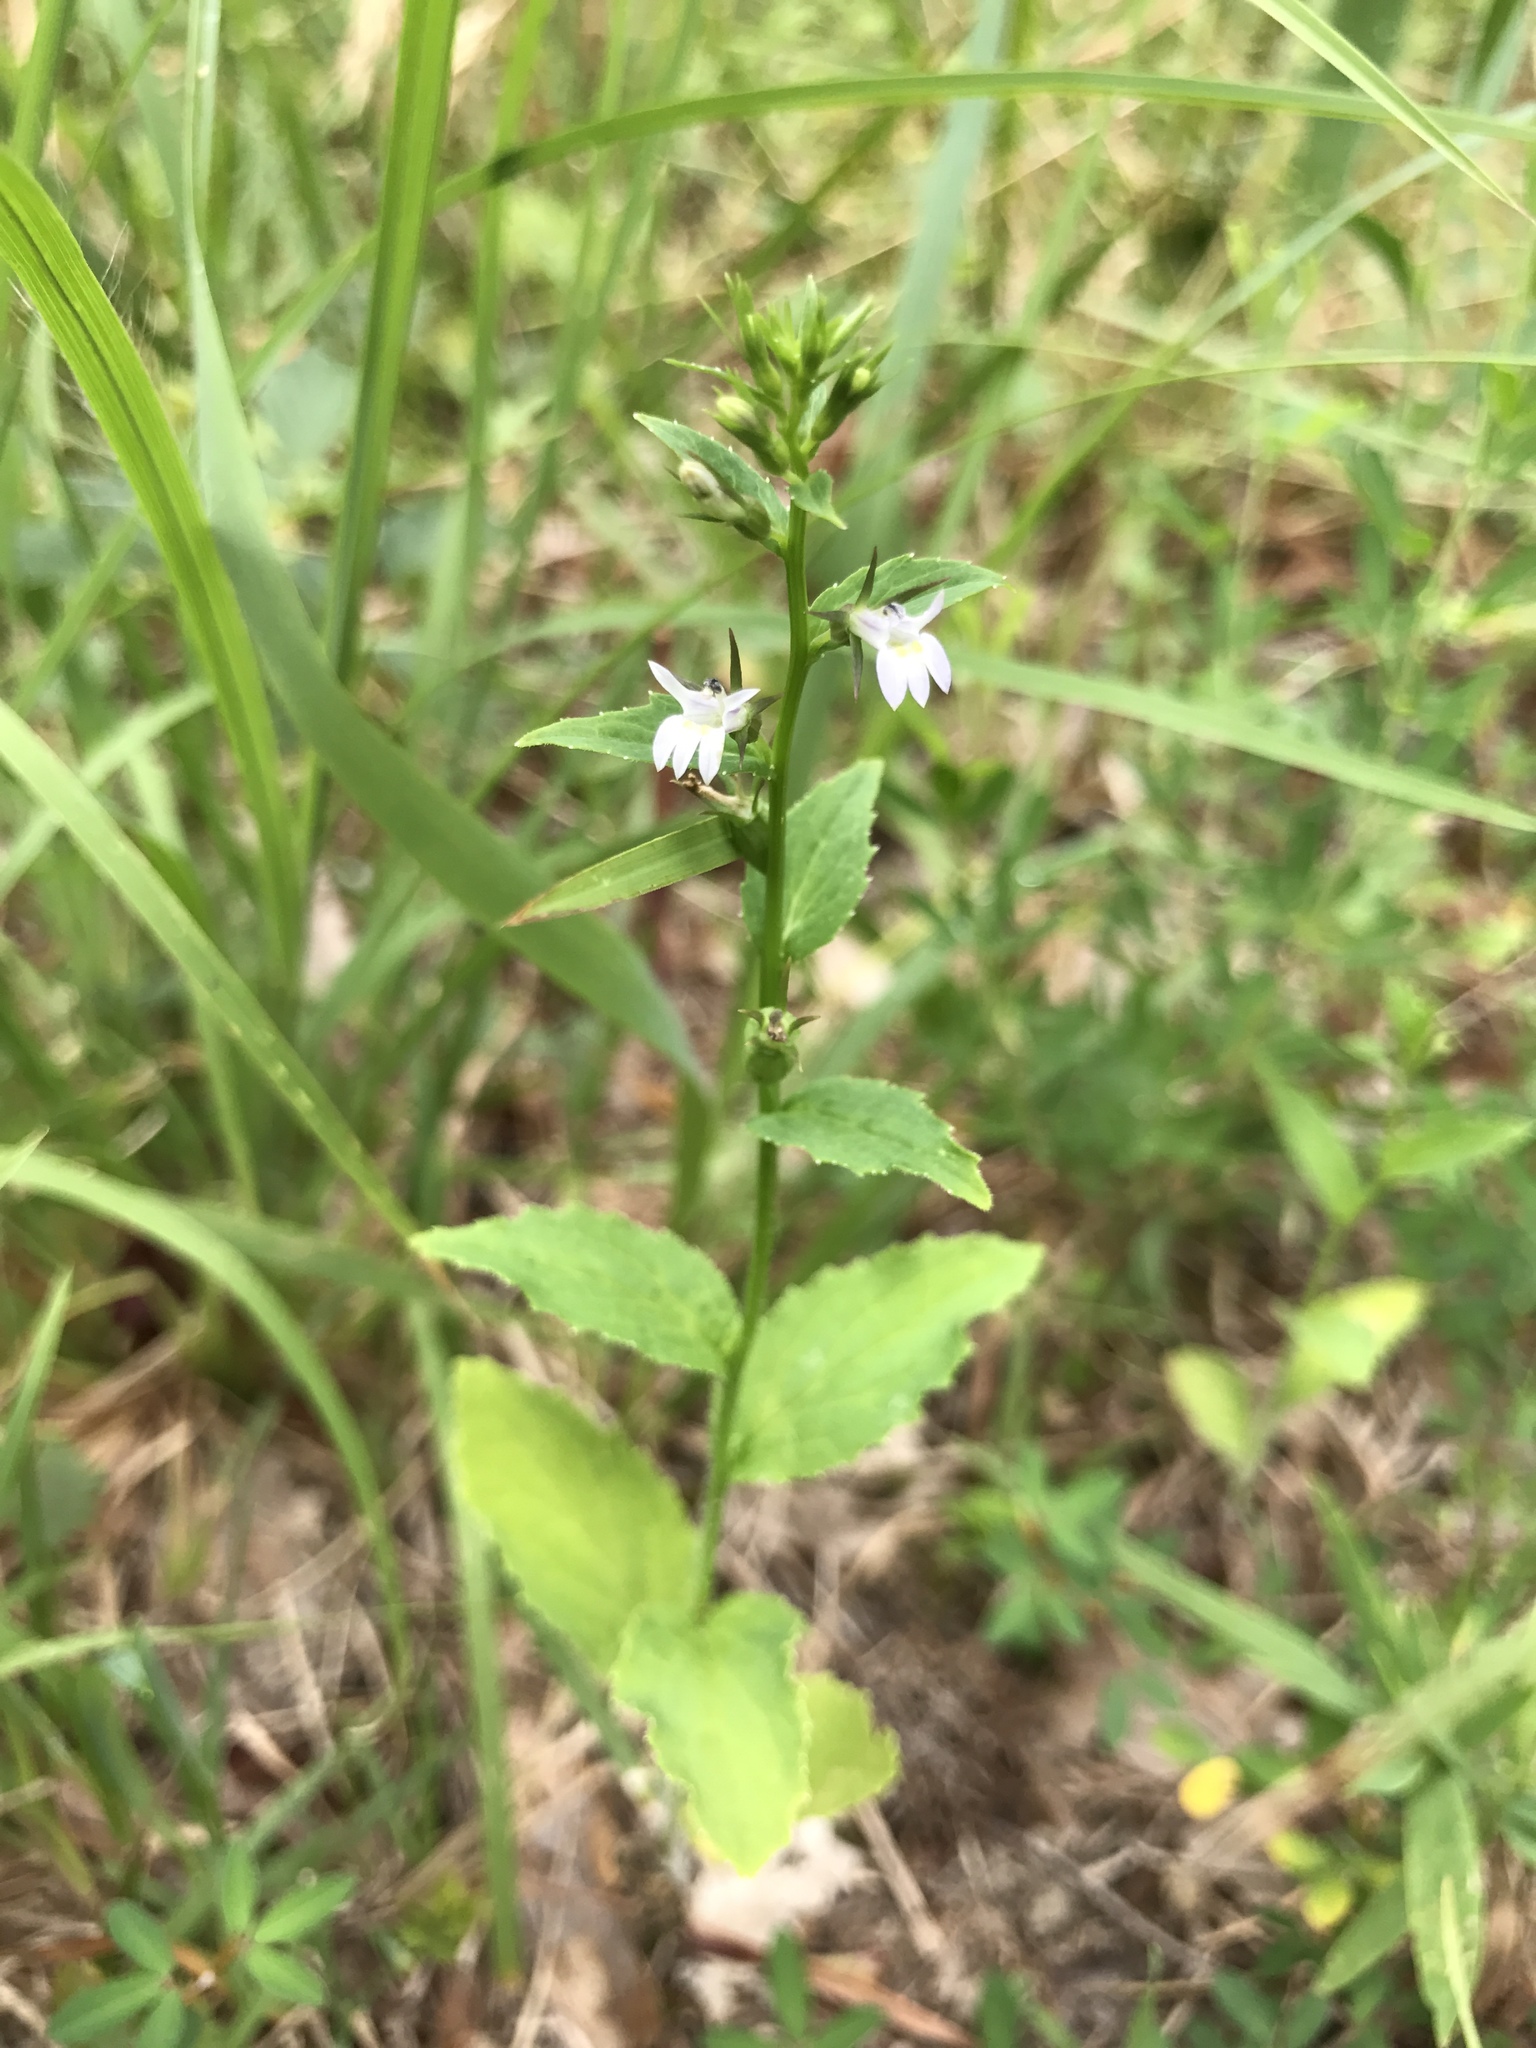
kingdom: Plantae
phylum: Tracheophyta
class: Magnoliopsida
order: Asterales
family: Campanulaceae
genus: Lobelia
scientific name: Lobelia inflata
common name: Indian tobacco
